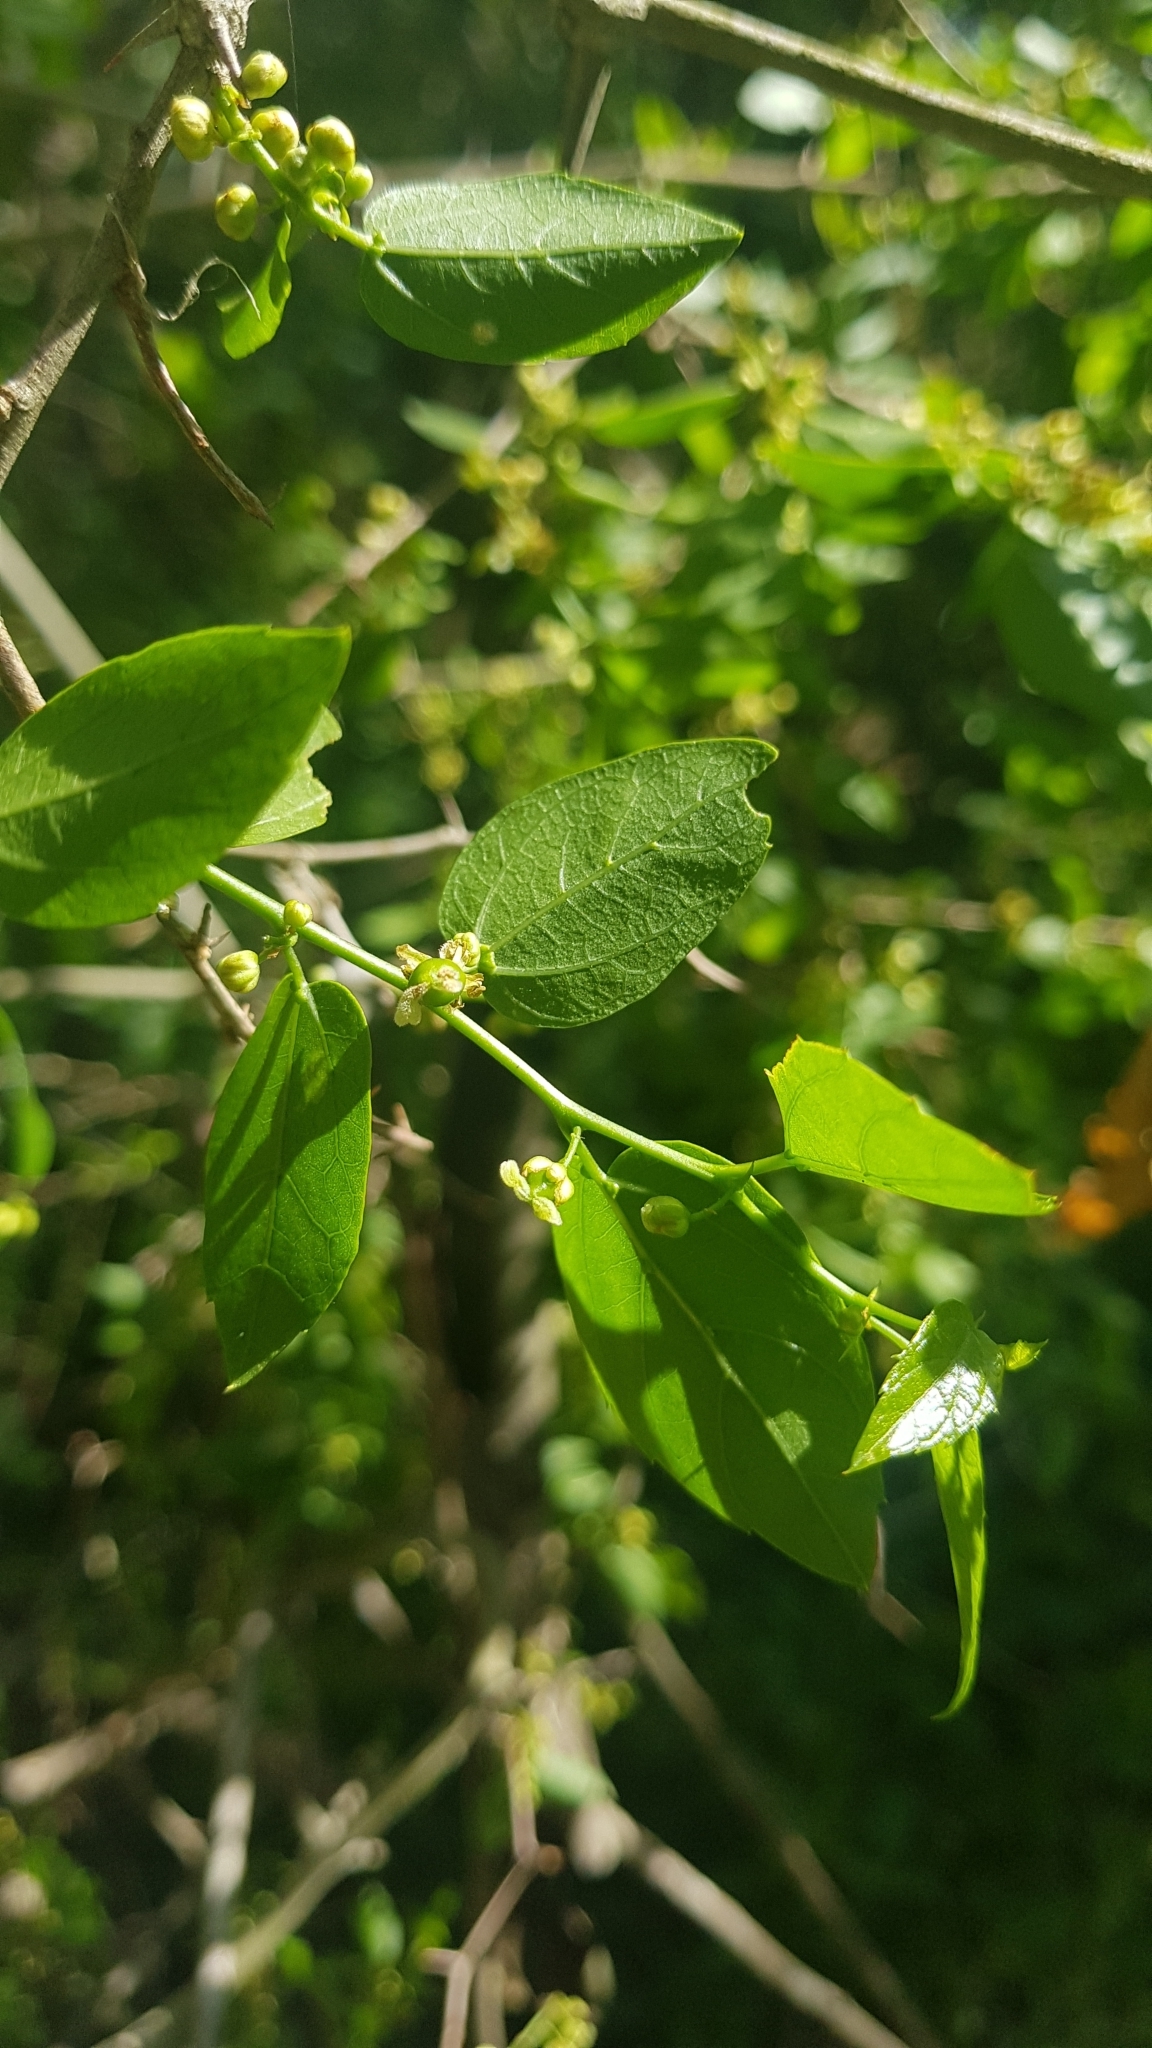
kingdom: Plantae
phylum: Tracheophyta
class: Magnoliopsida
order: Rosales
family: Cannabaceae
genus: Celtis
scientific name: Celtis tala
